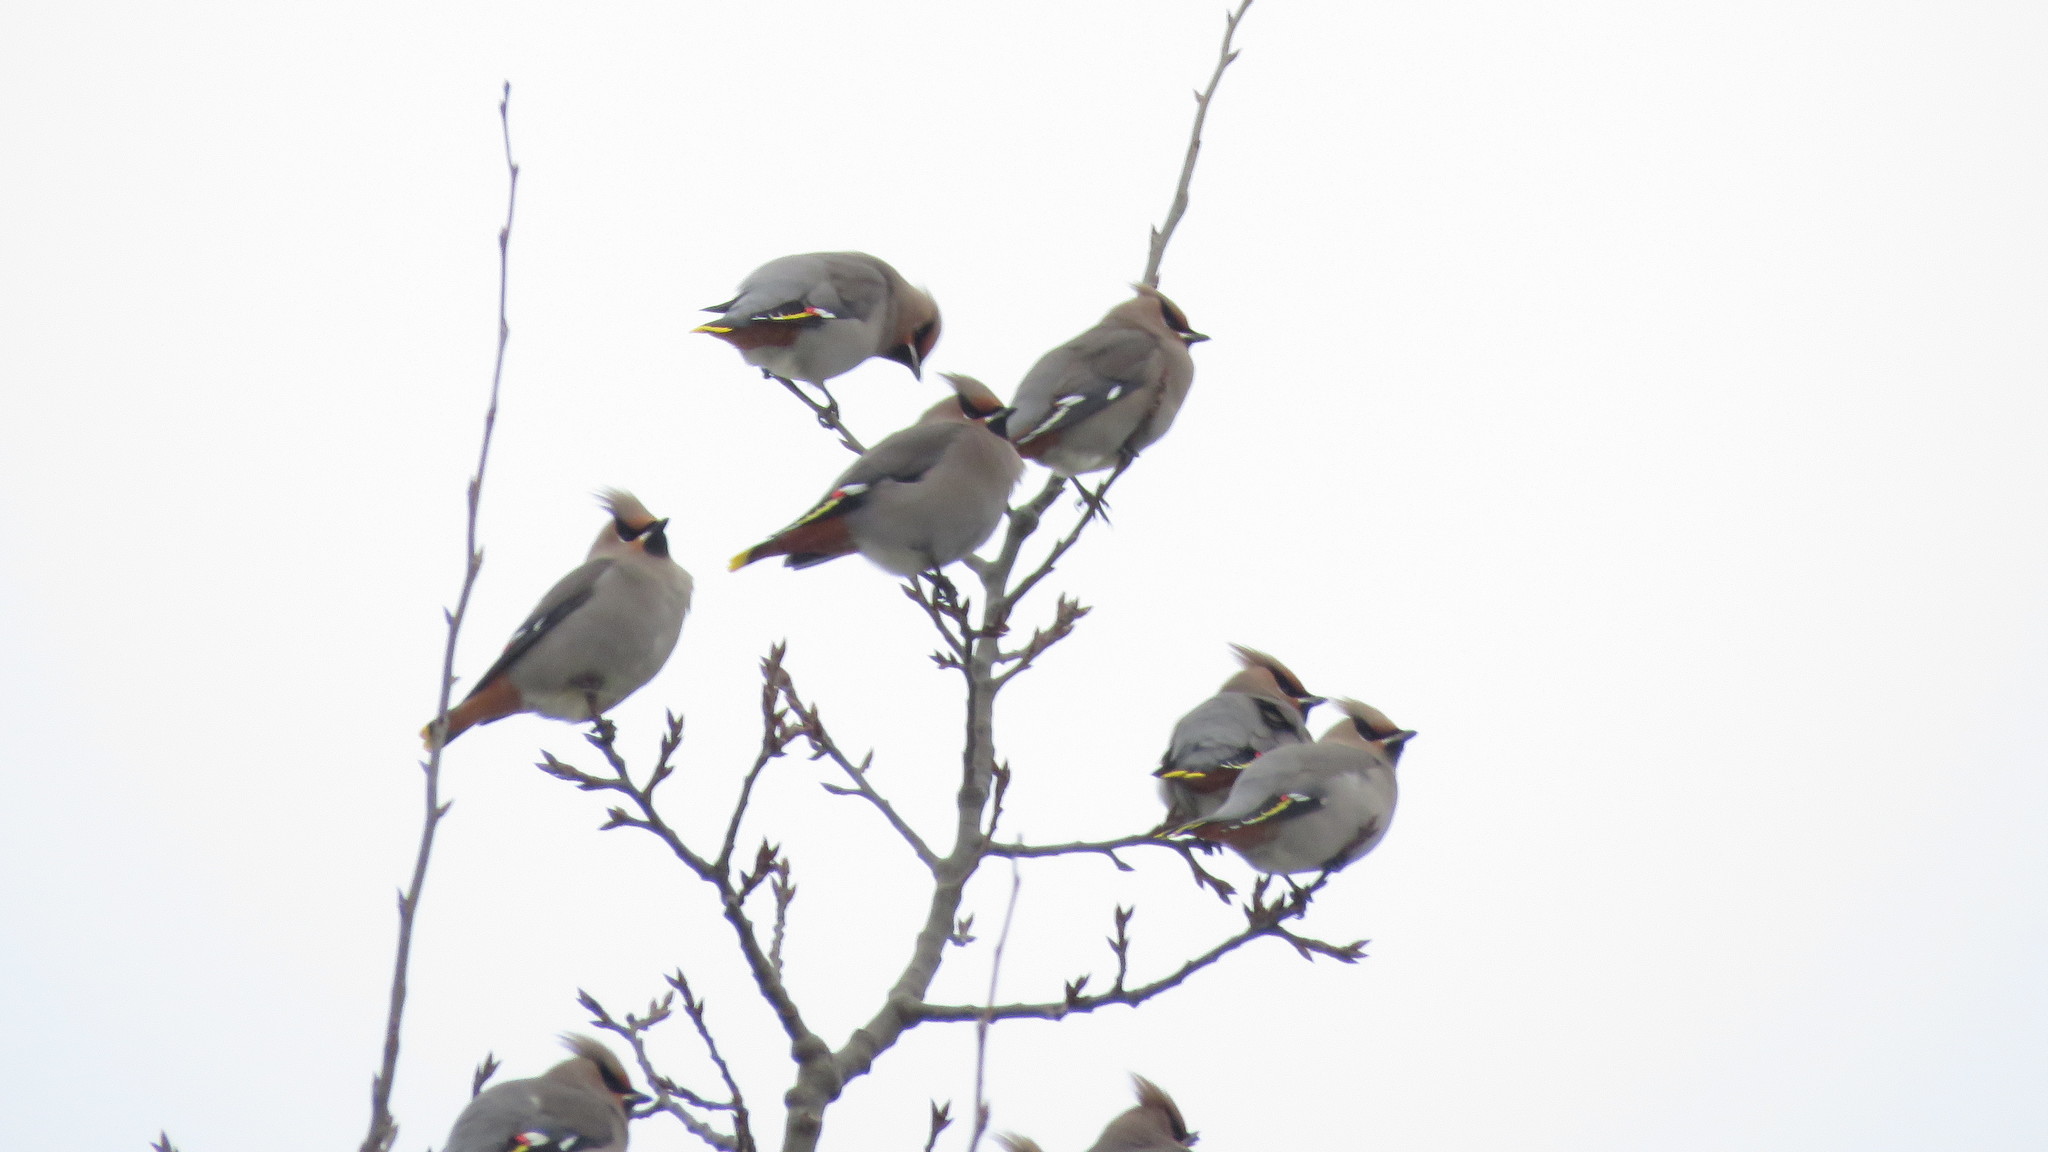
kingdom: Animalia
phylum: Chordata
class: Aves
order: Passeriformes
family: Bombycillidae
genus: Bombycilla
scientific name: Bombycilla garrulus
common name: Bohemian waxwing
